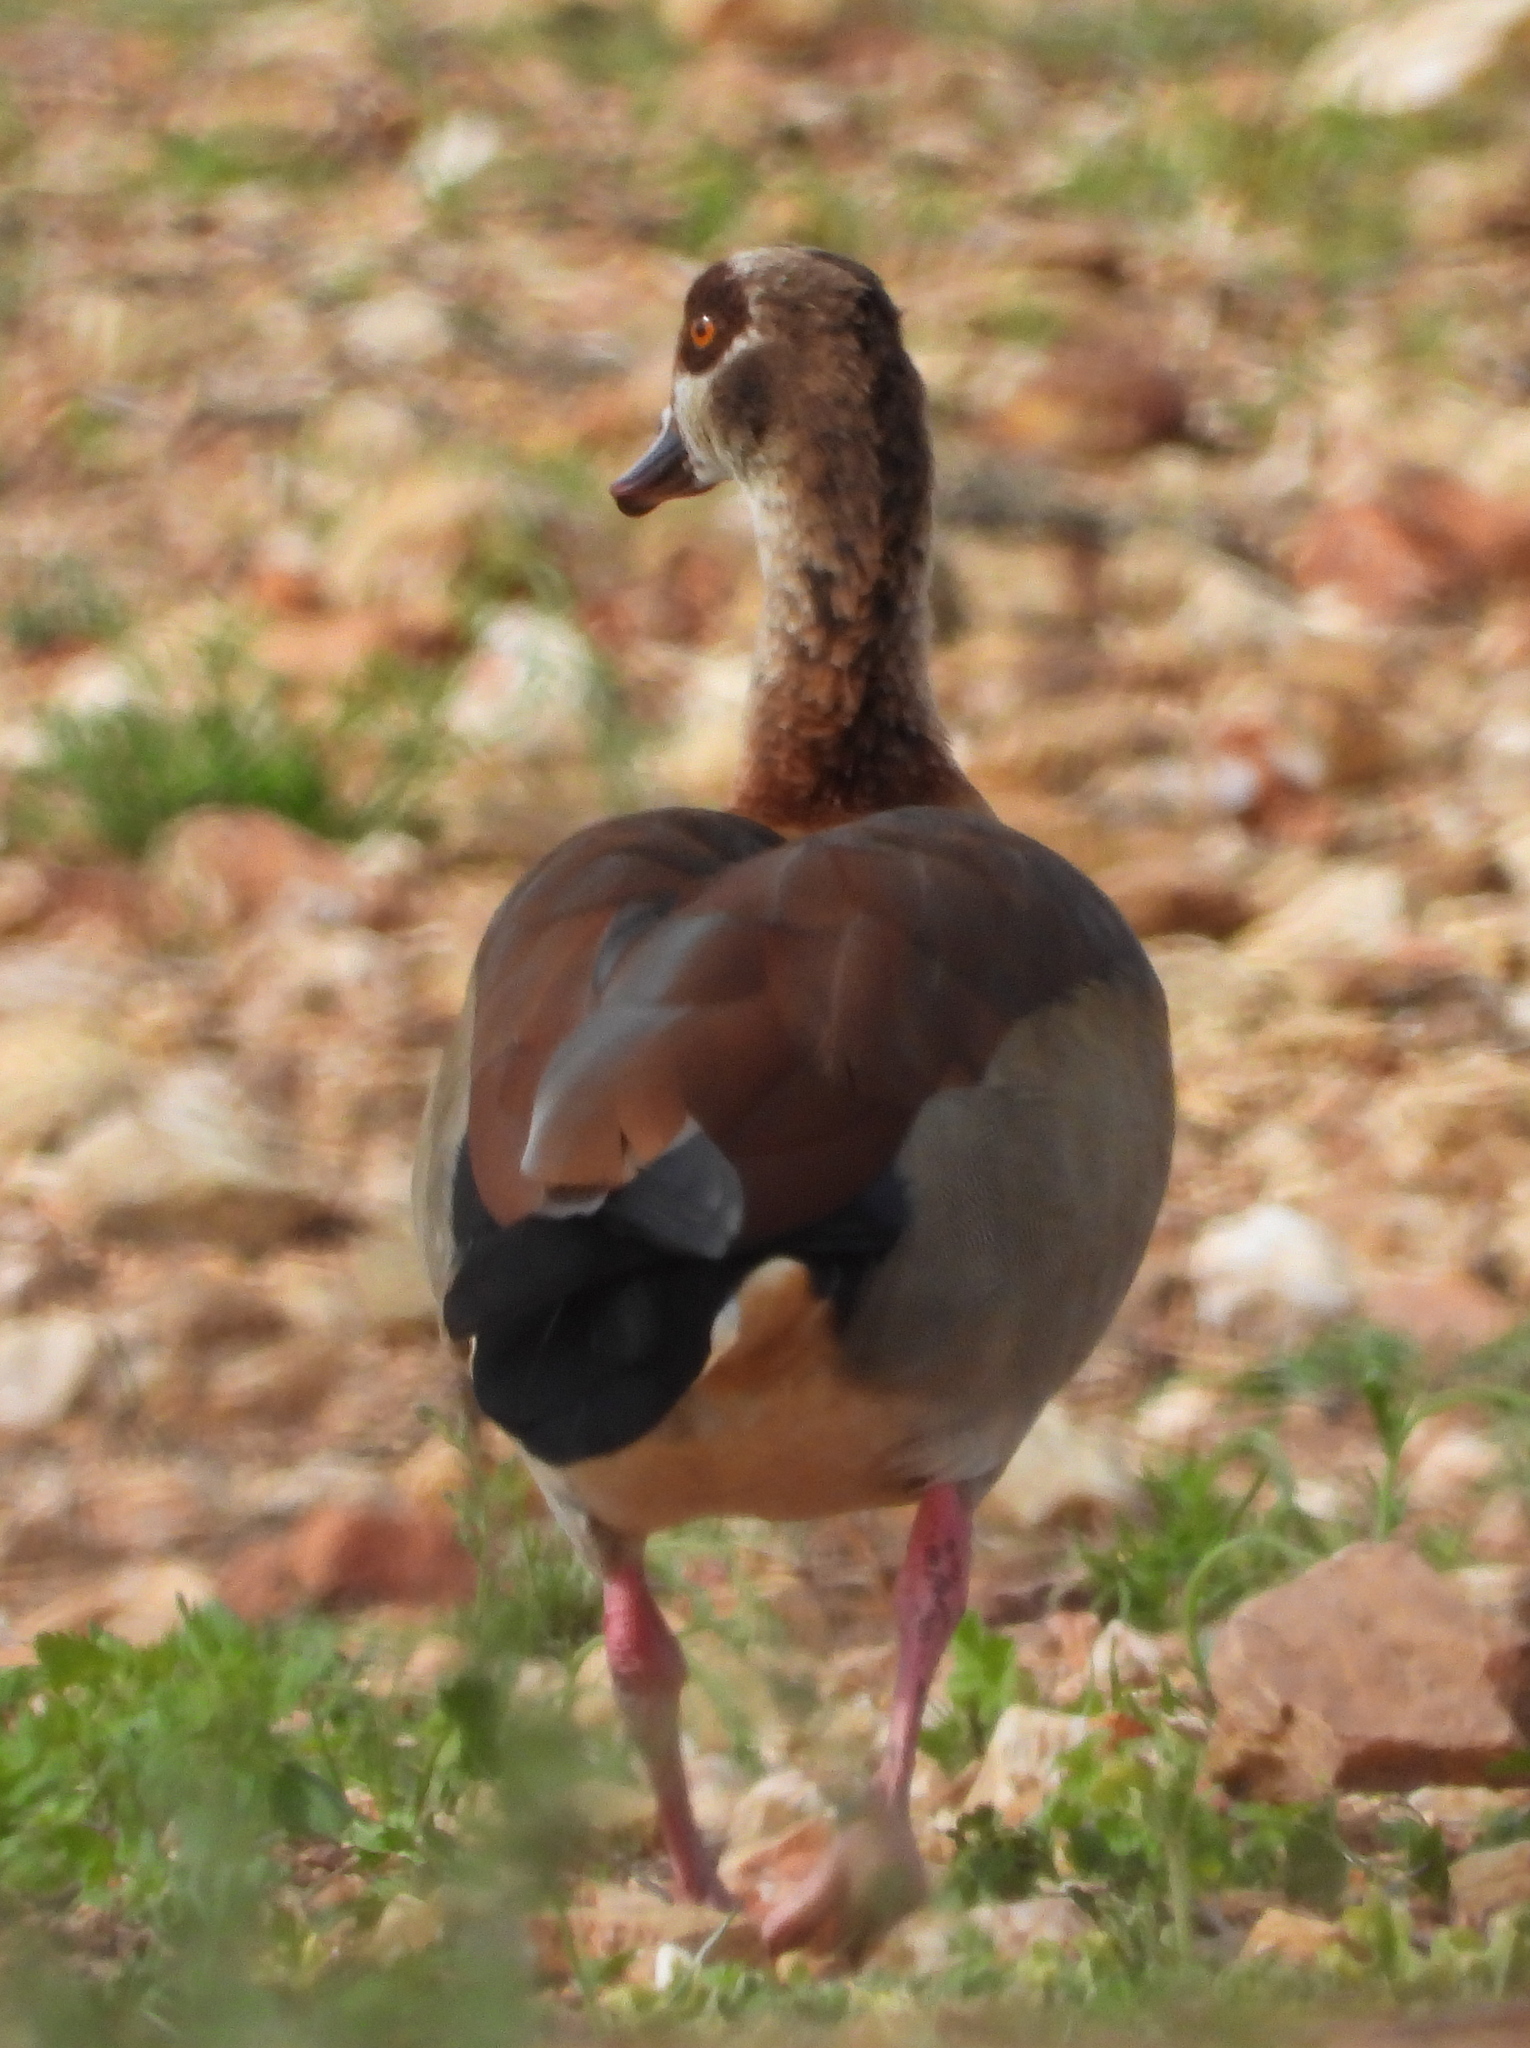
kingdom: Animalia
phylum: Chordata
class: Aves
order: Anseriformes
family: Anatidae
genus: Alopochen
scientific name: Alopochen aegyptiaca
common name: Egyptian goose
